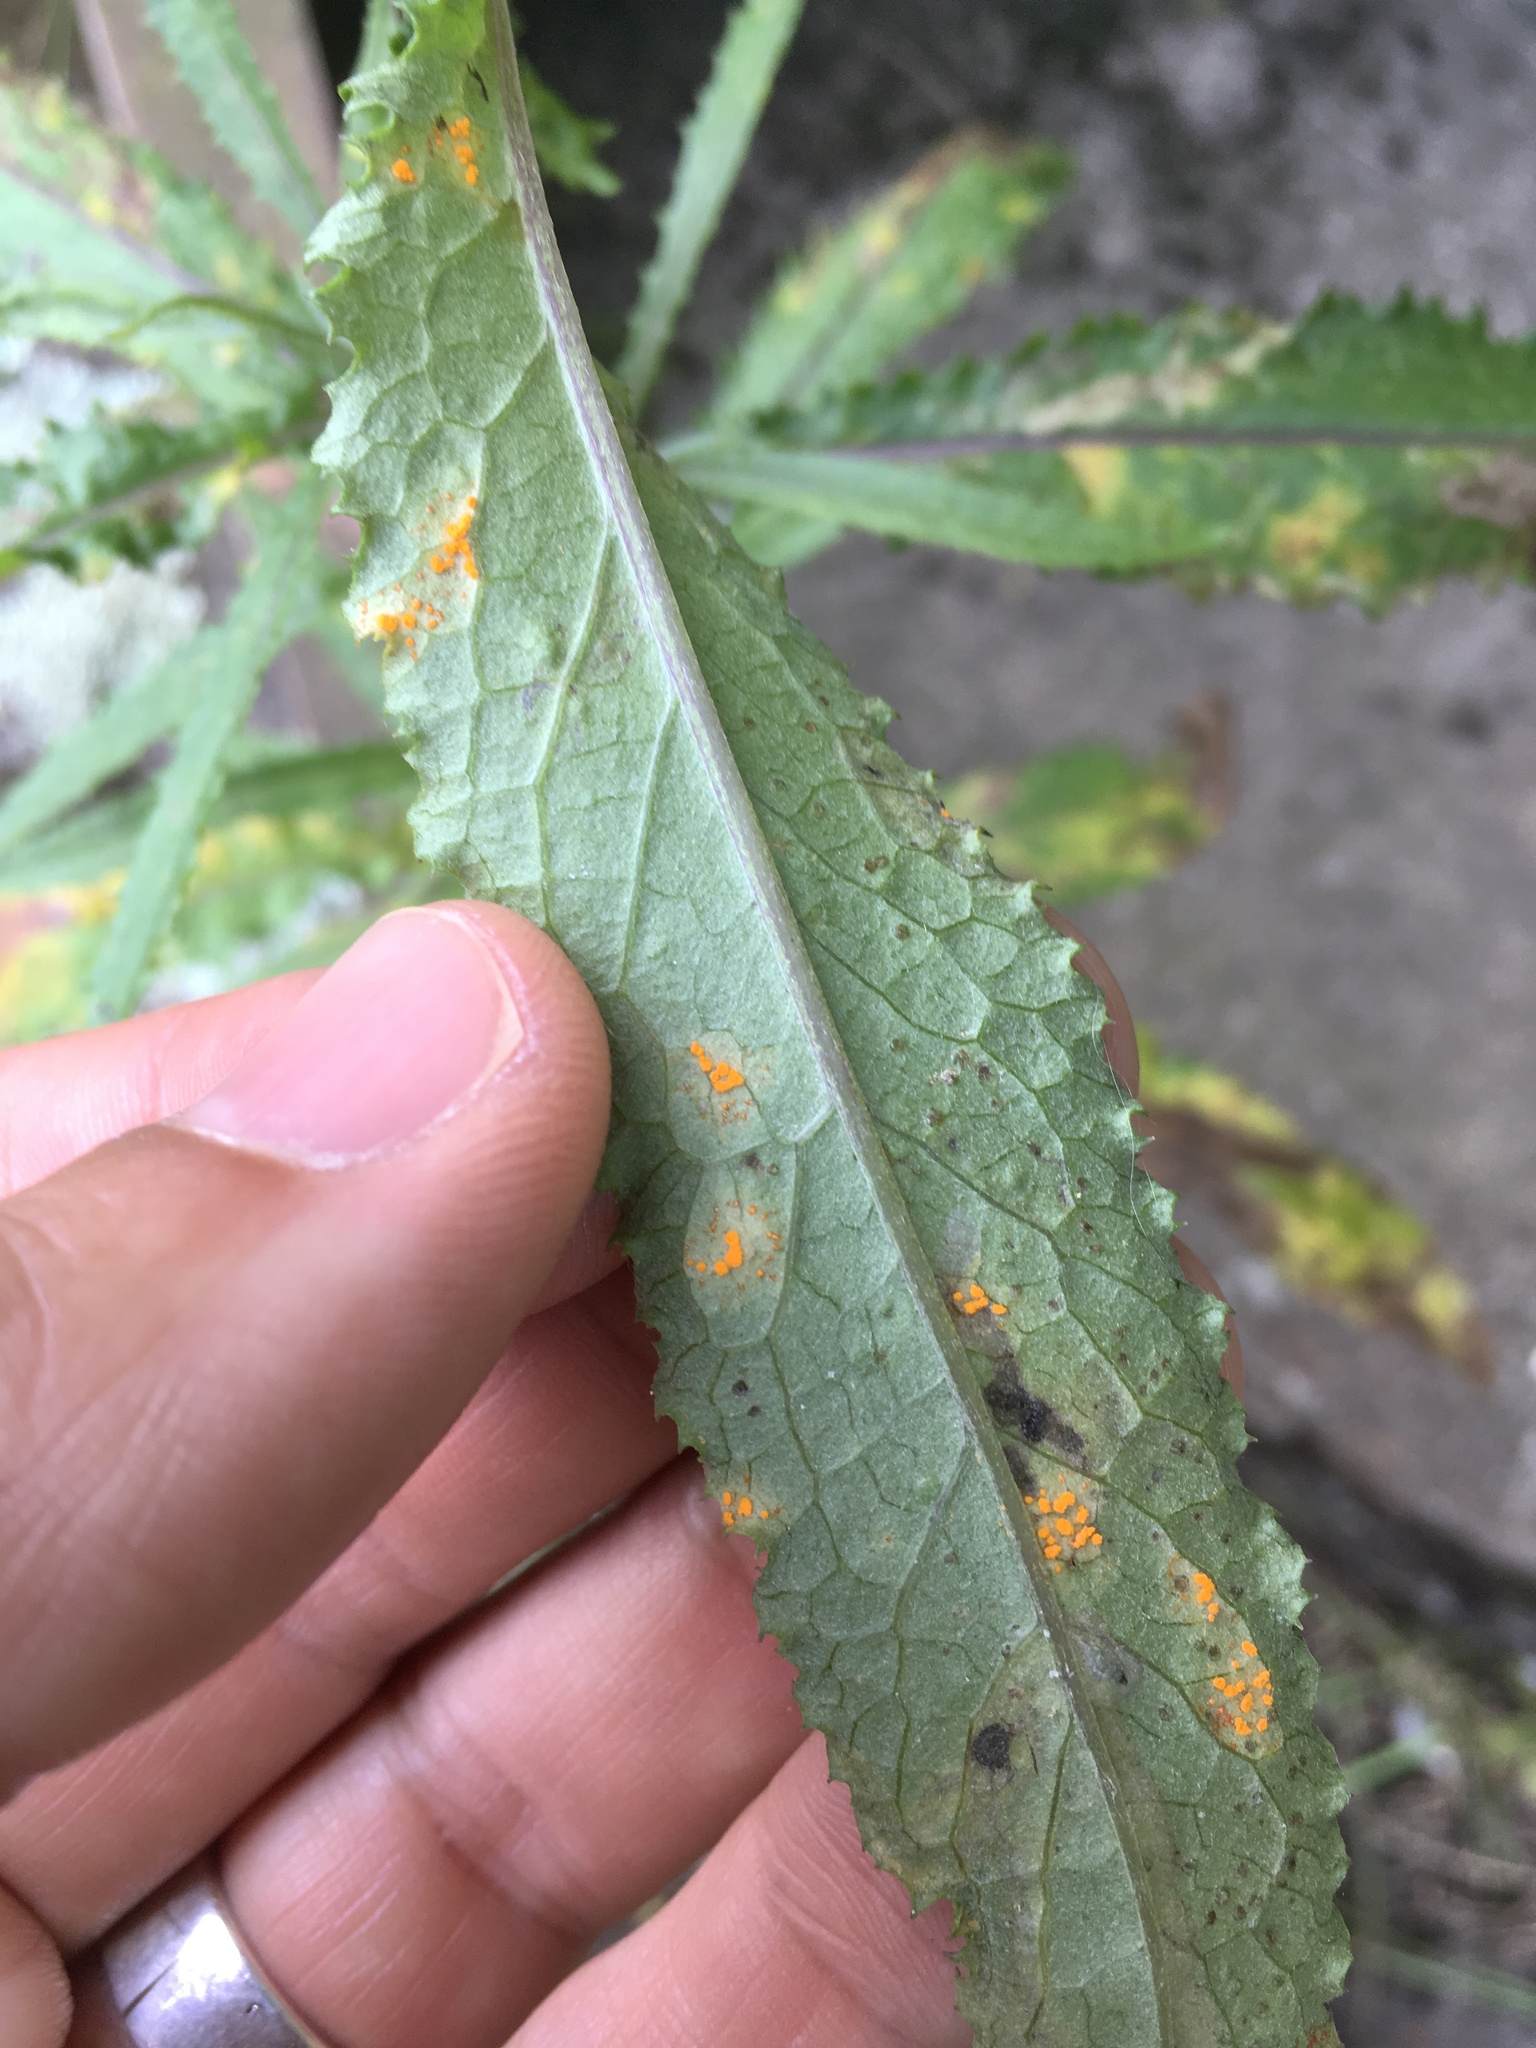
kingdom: Fungi
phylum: Basidiomycota
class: Pucciniomycetes
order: Pucciniales
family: Coleosporiaceae
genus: Coleosporium
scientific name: Coleosporium tussilaginis
